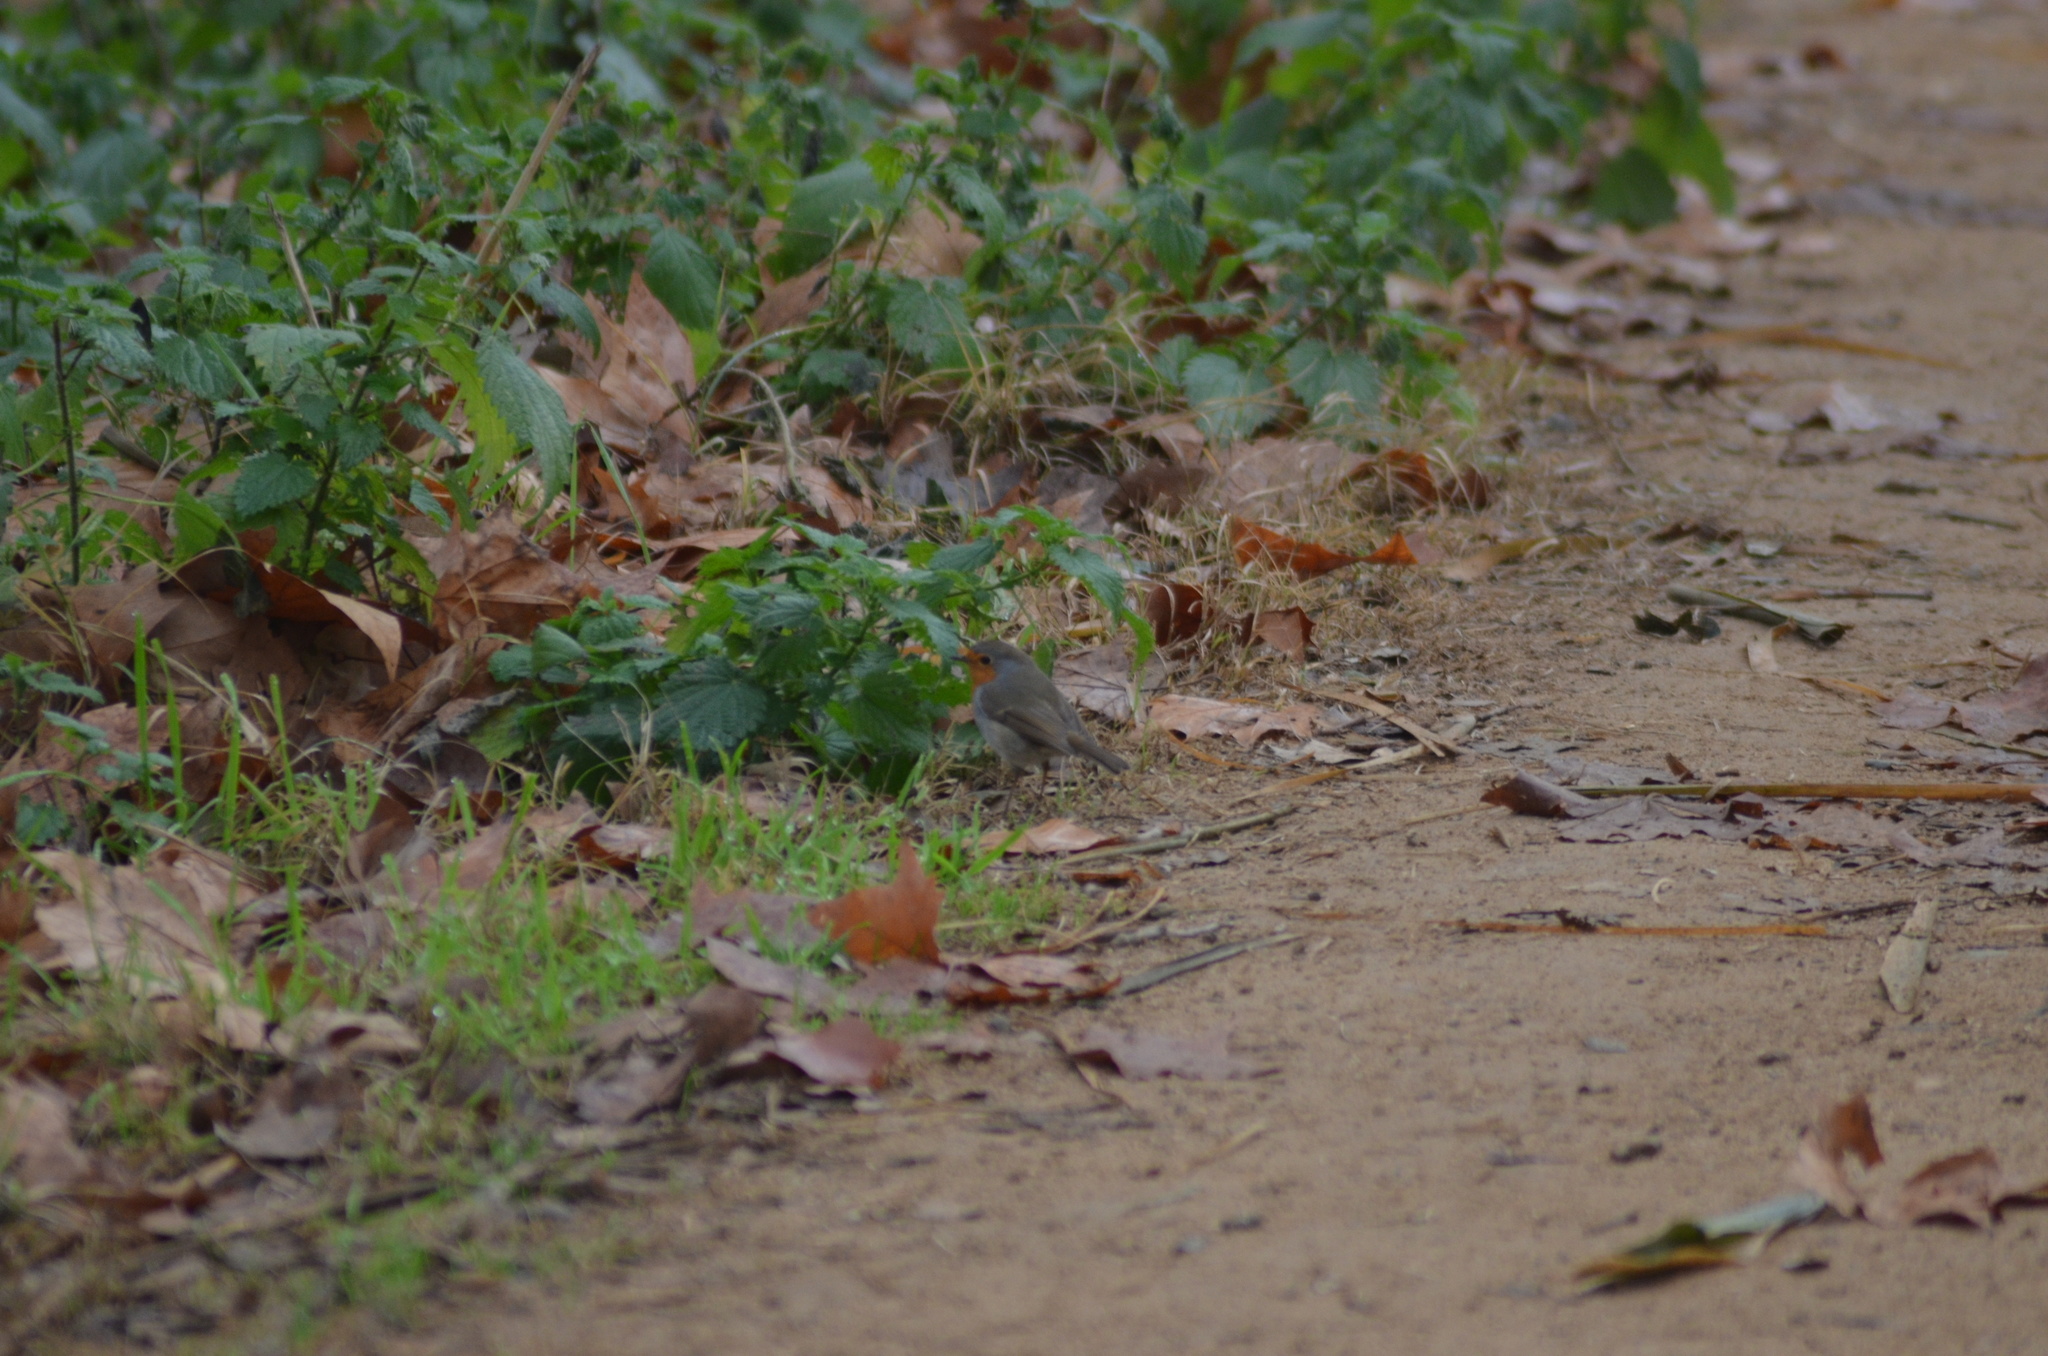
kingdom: Animalia
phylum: Chordata
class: Aves
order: Passeriformes
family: Muscicapidae
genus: Erithacus
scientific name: Erithacus rubecula
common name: European robin
